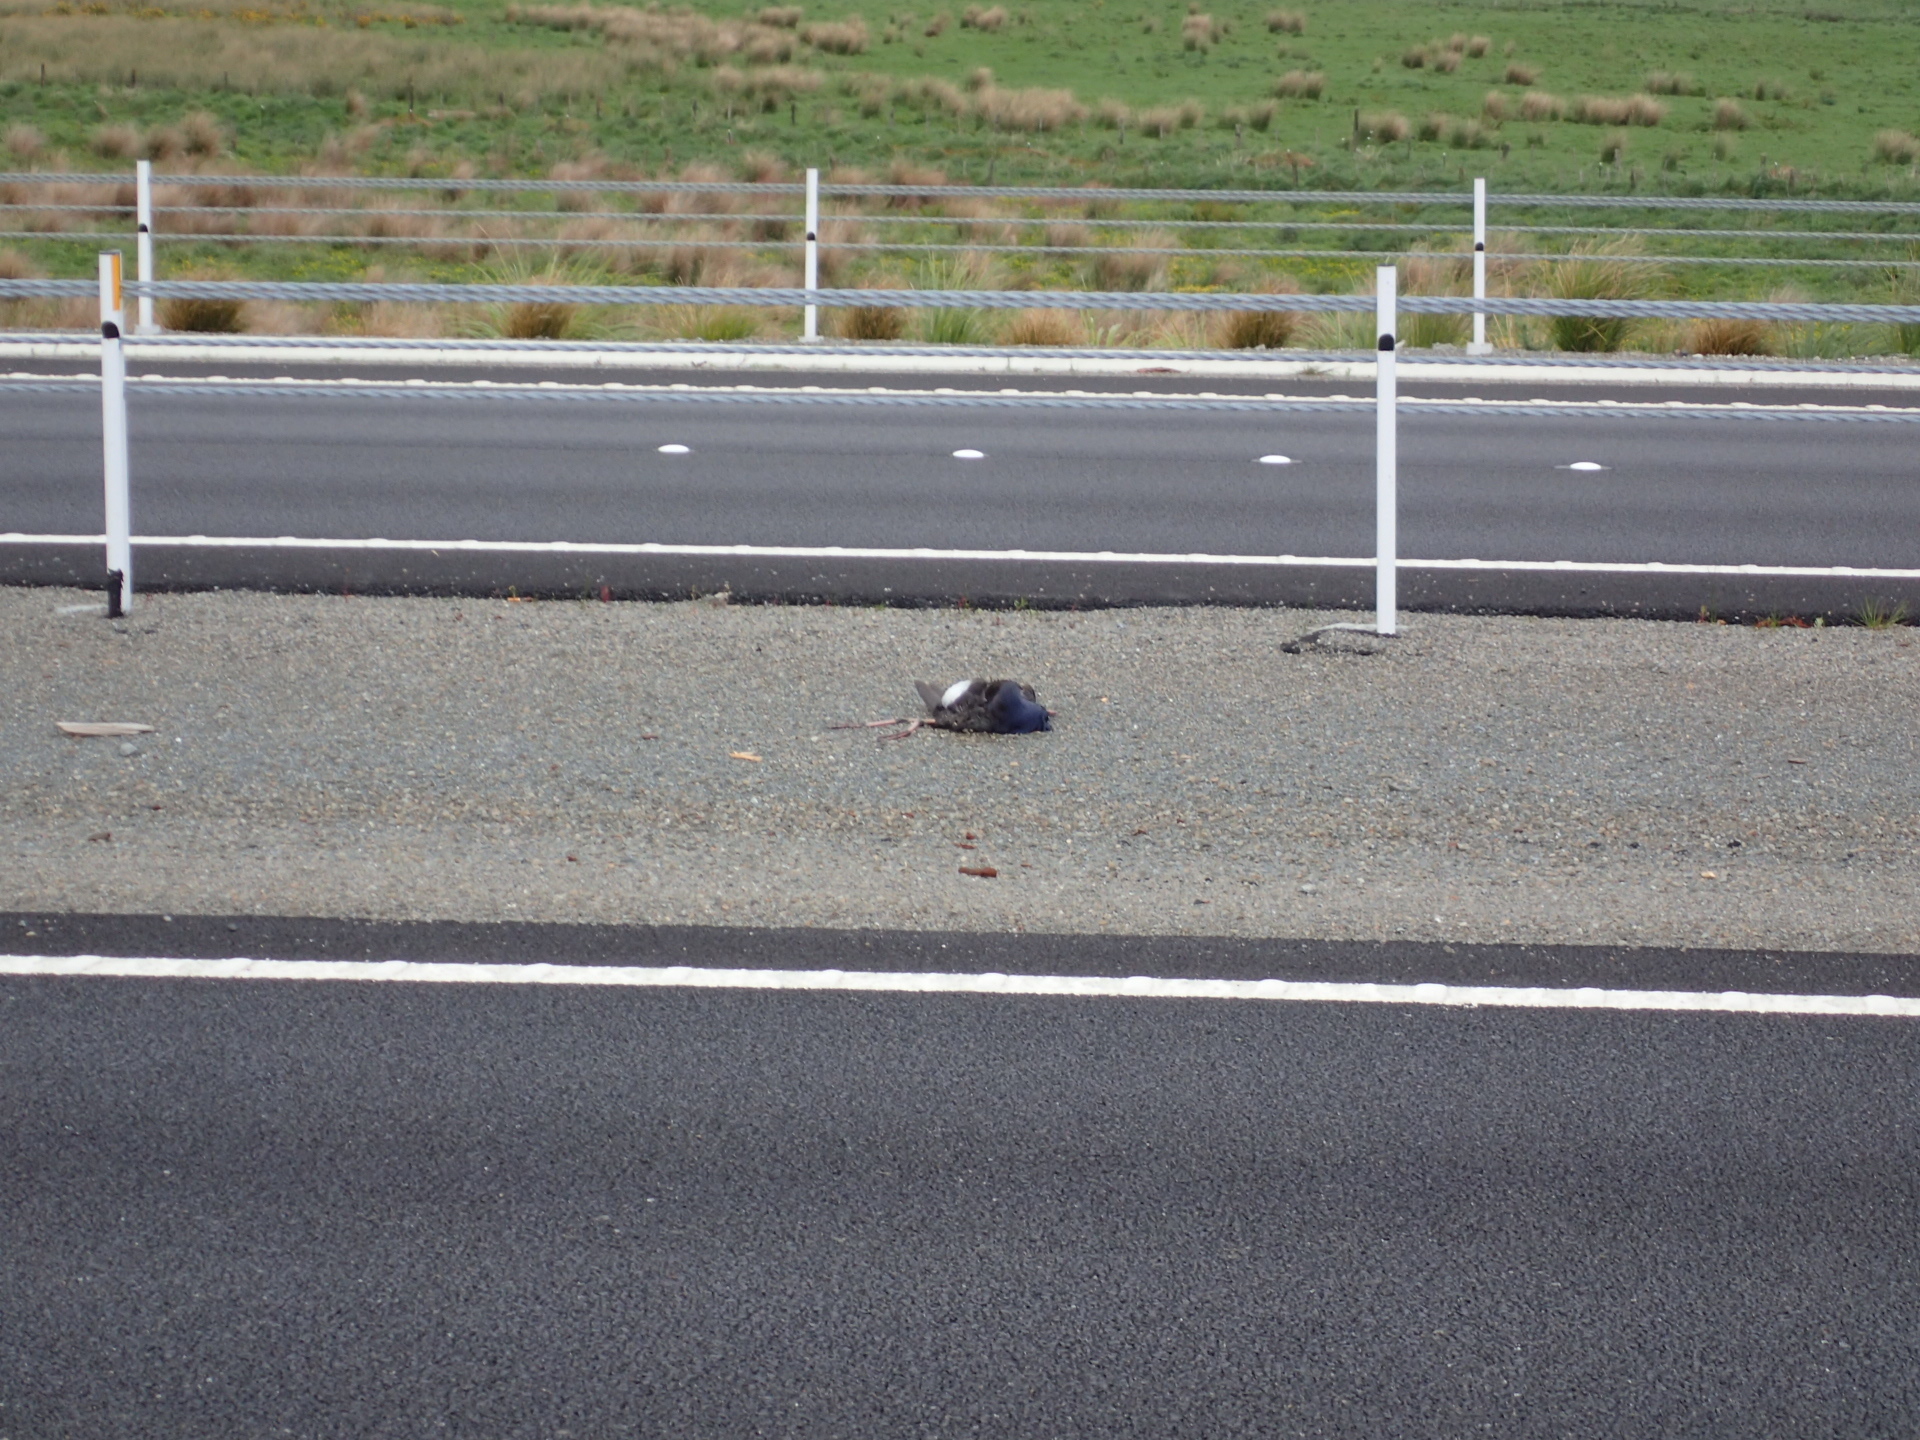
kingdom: Animalia
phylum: Chordata
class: Aves
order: Gruiformes
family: Rallidae
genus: Porphyrio
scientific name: Porphyrio melanotus
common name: Australasian swamphen
